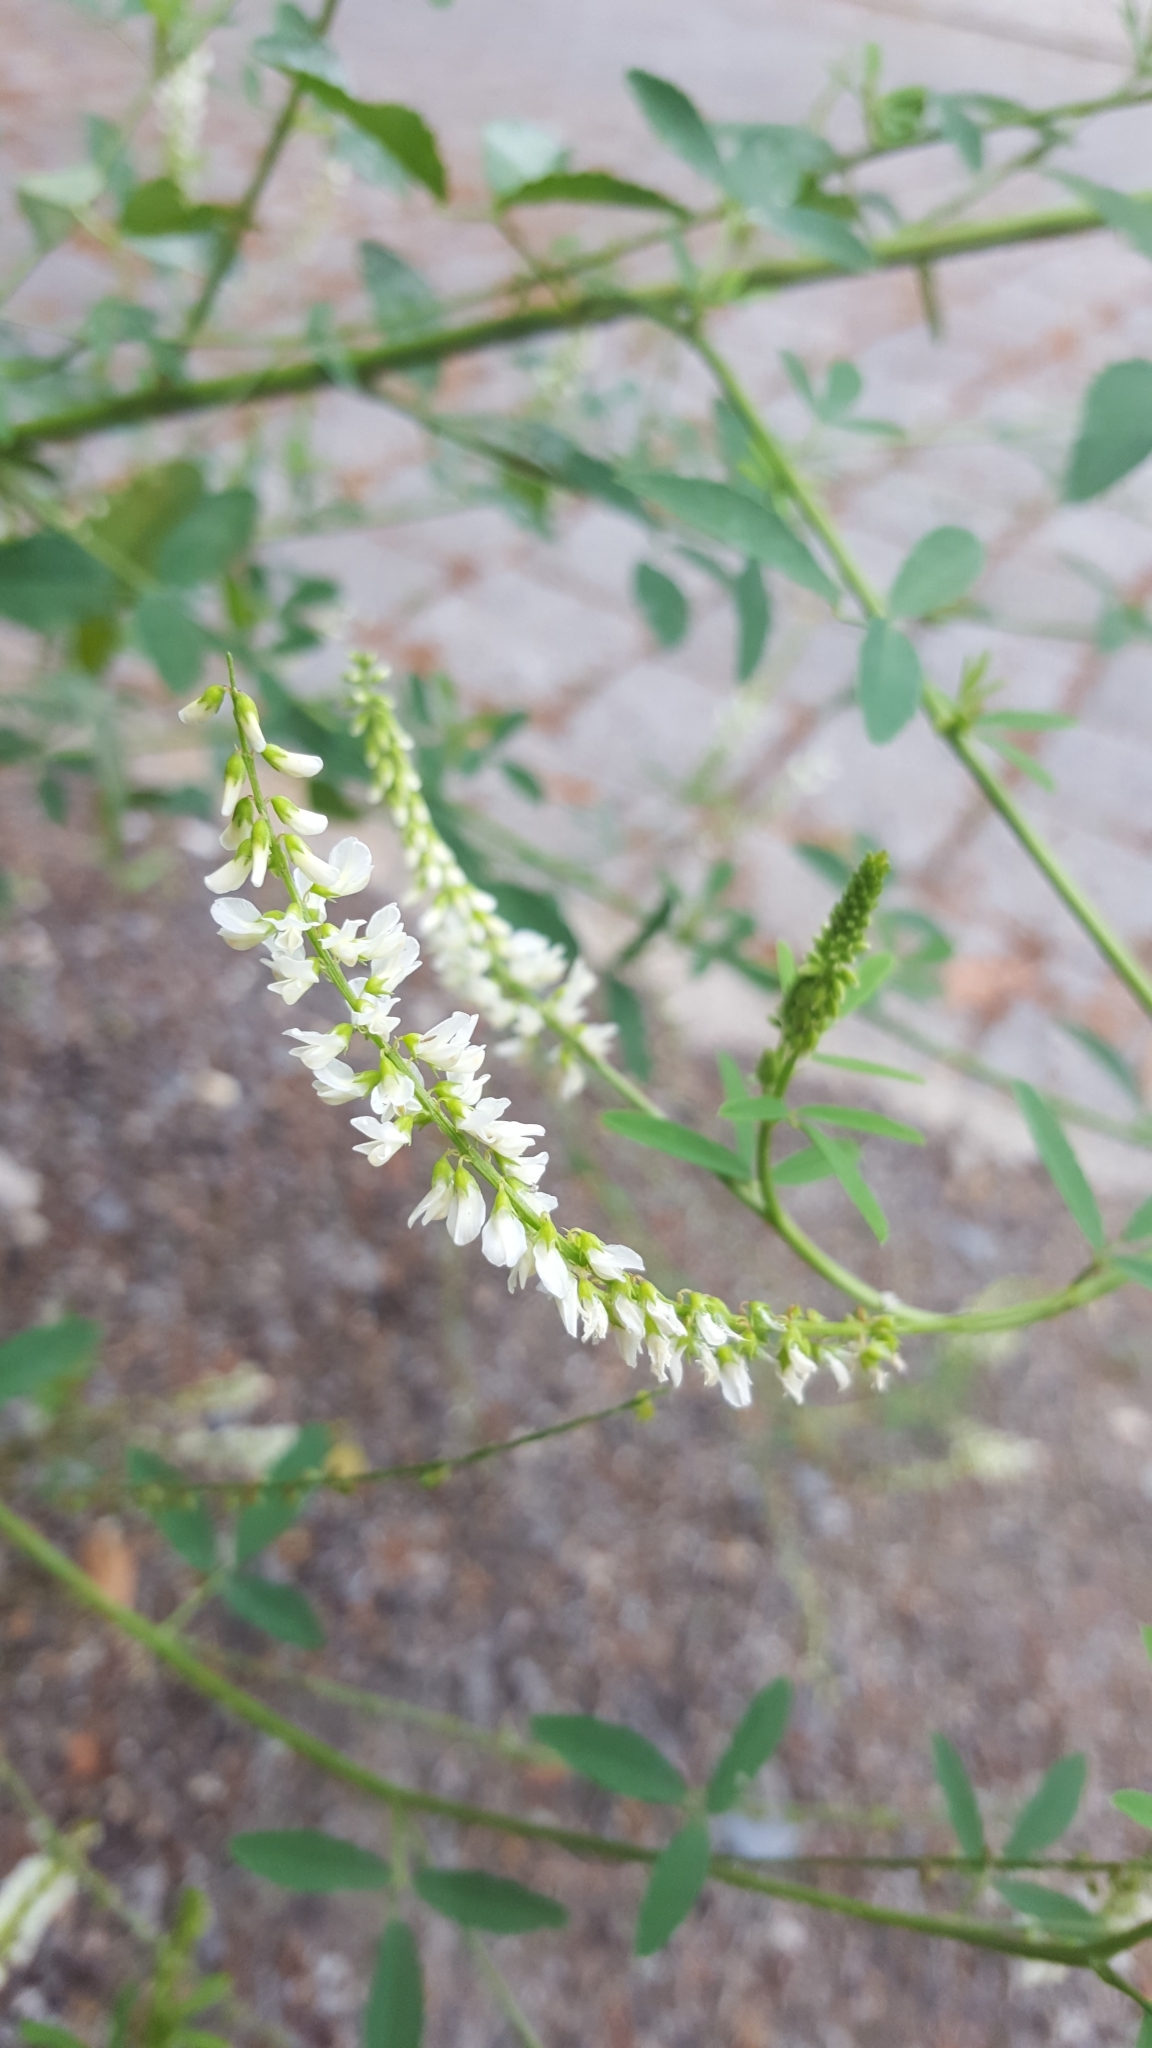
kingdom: Plantae
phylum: Tracheophyta
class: Magnoliopsida
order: Fabales
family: Fabaceae
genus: Melilotus
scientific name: Melilotus albus
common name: White melilot
